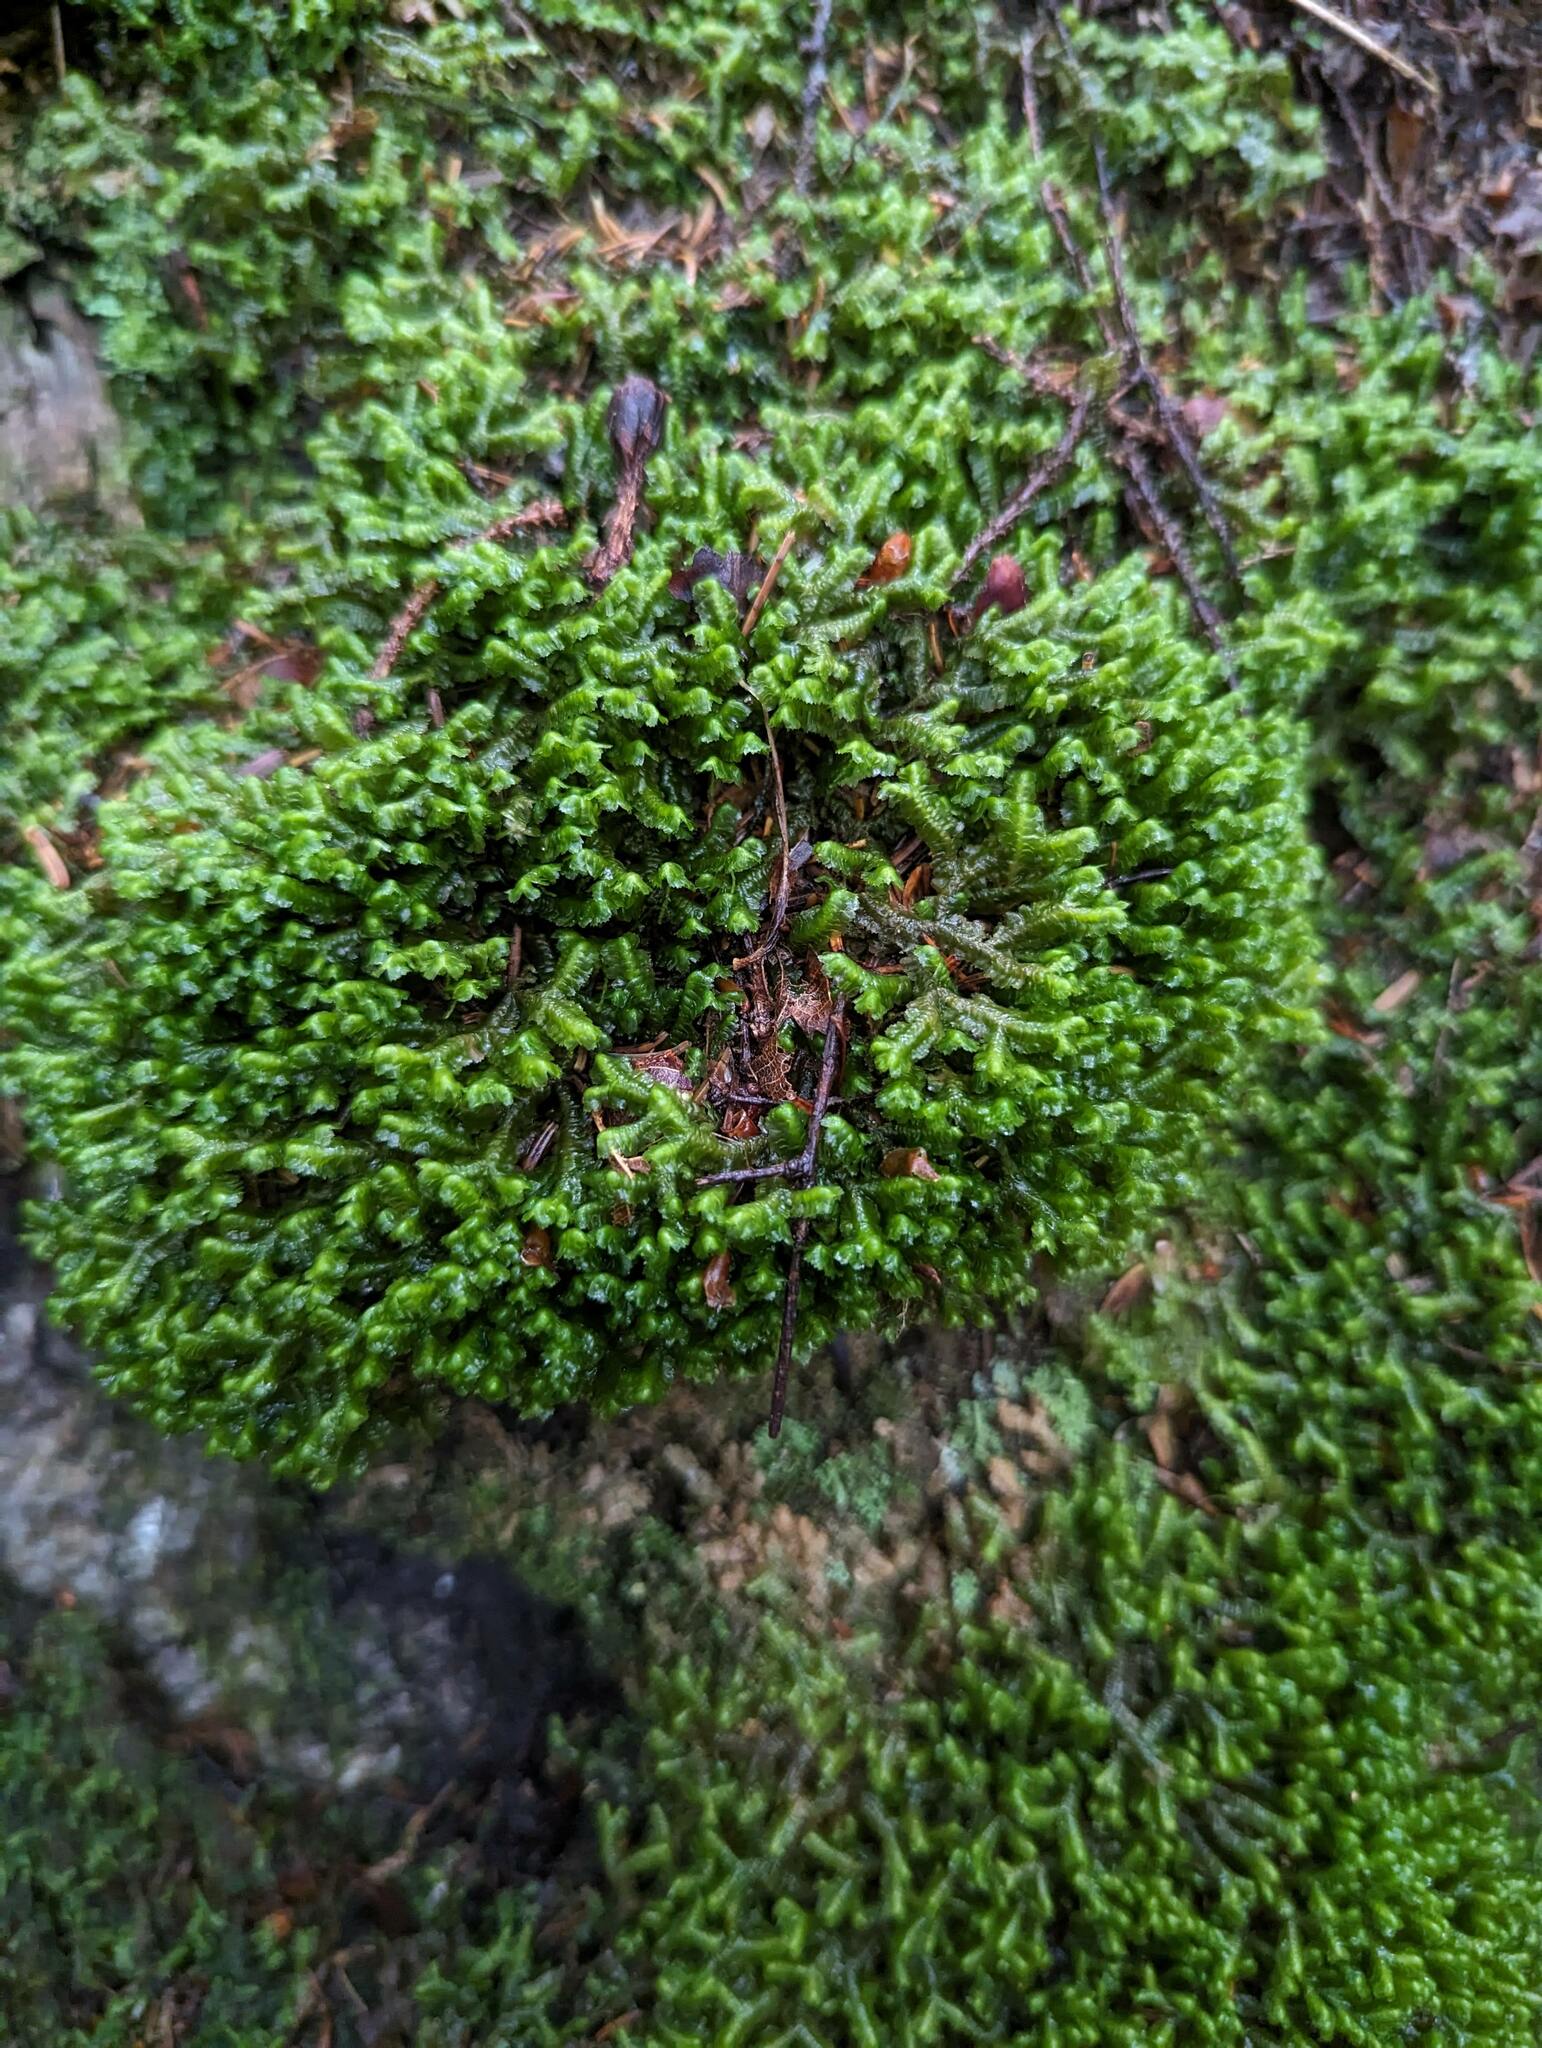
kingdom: Plantae
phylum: Marchantiophyta
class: Jungermanniopsida
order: Jungermanniales
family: Lepidoziaceae
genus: Bazzania
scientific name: Bazzania trilobata
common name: Three-lobed whipwort
